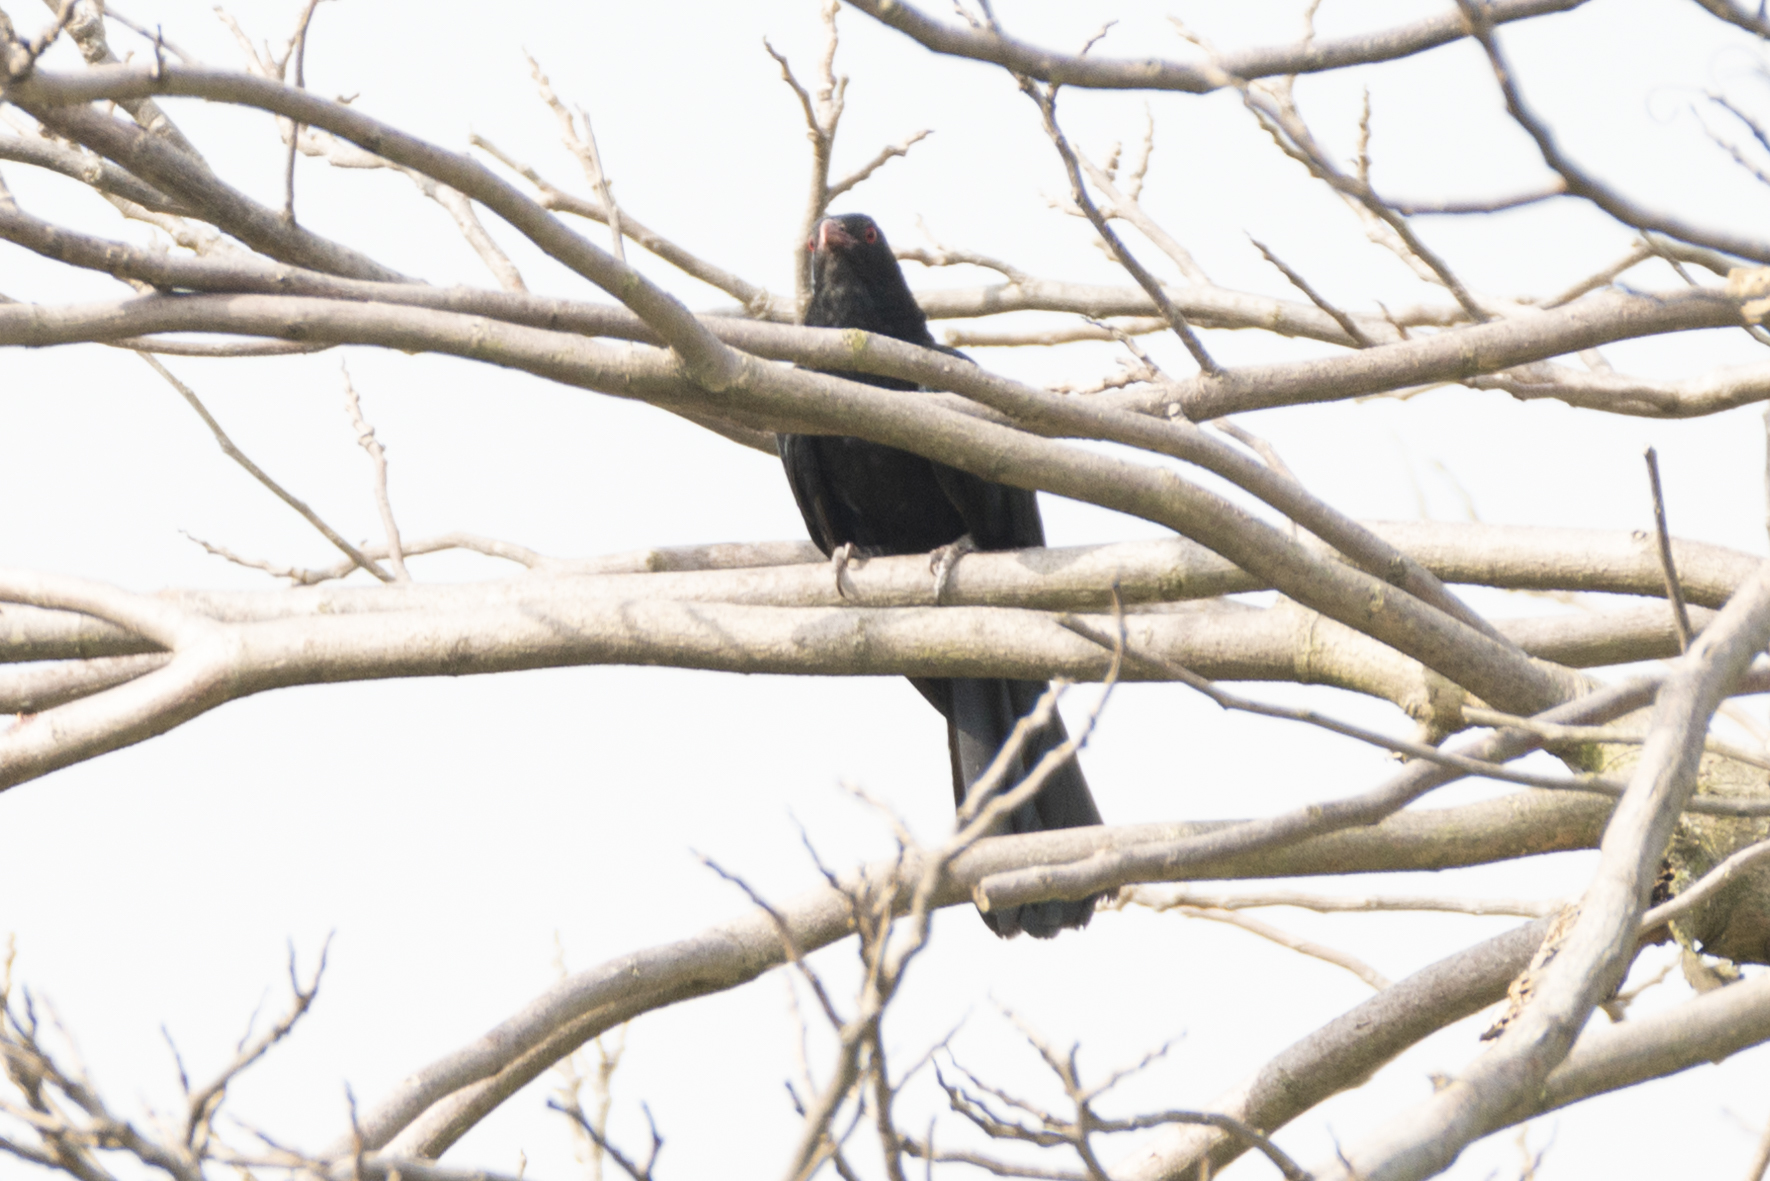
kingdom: Animalia
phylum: Chordata
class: Aves
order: Cuculiformes
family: Cuculidae
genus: Eudynamys
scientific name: Eudynamys scolopaceus
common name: Asian koel
